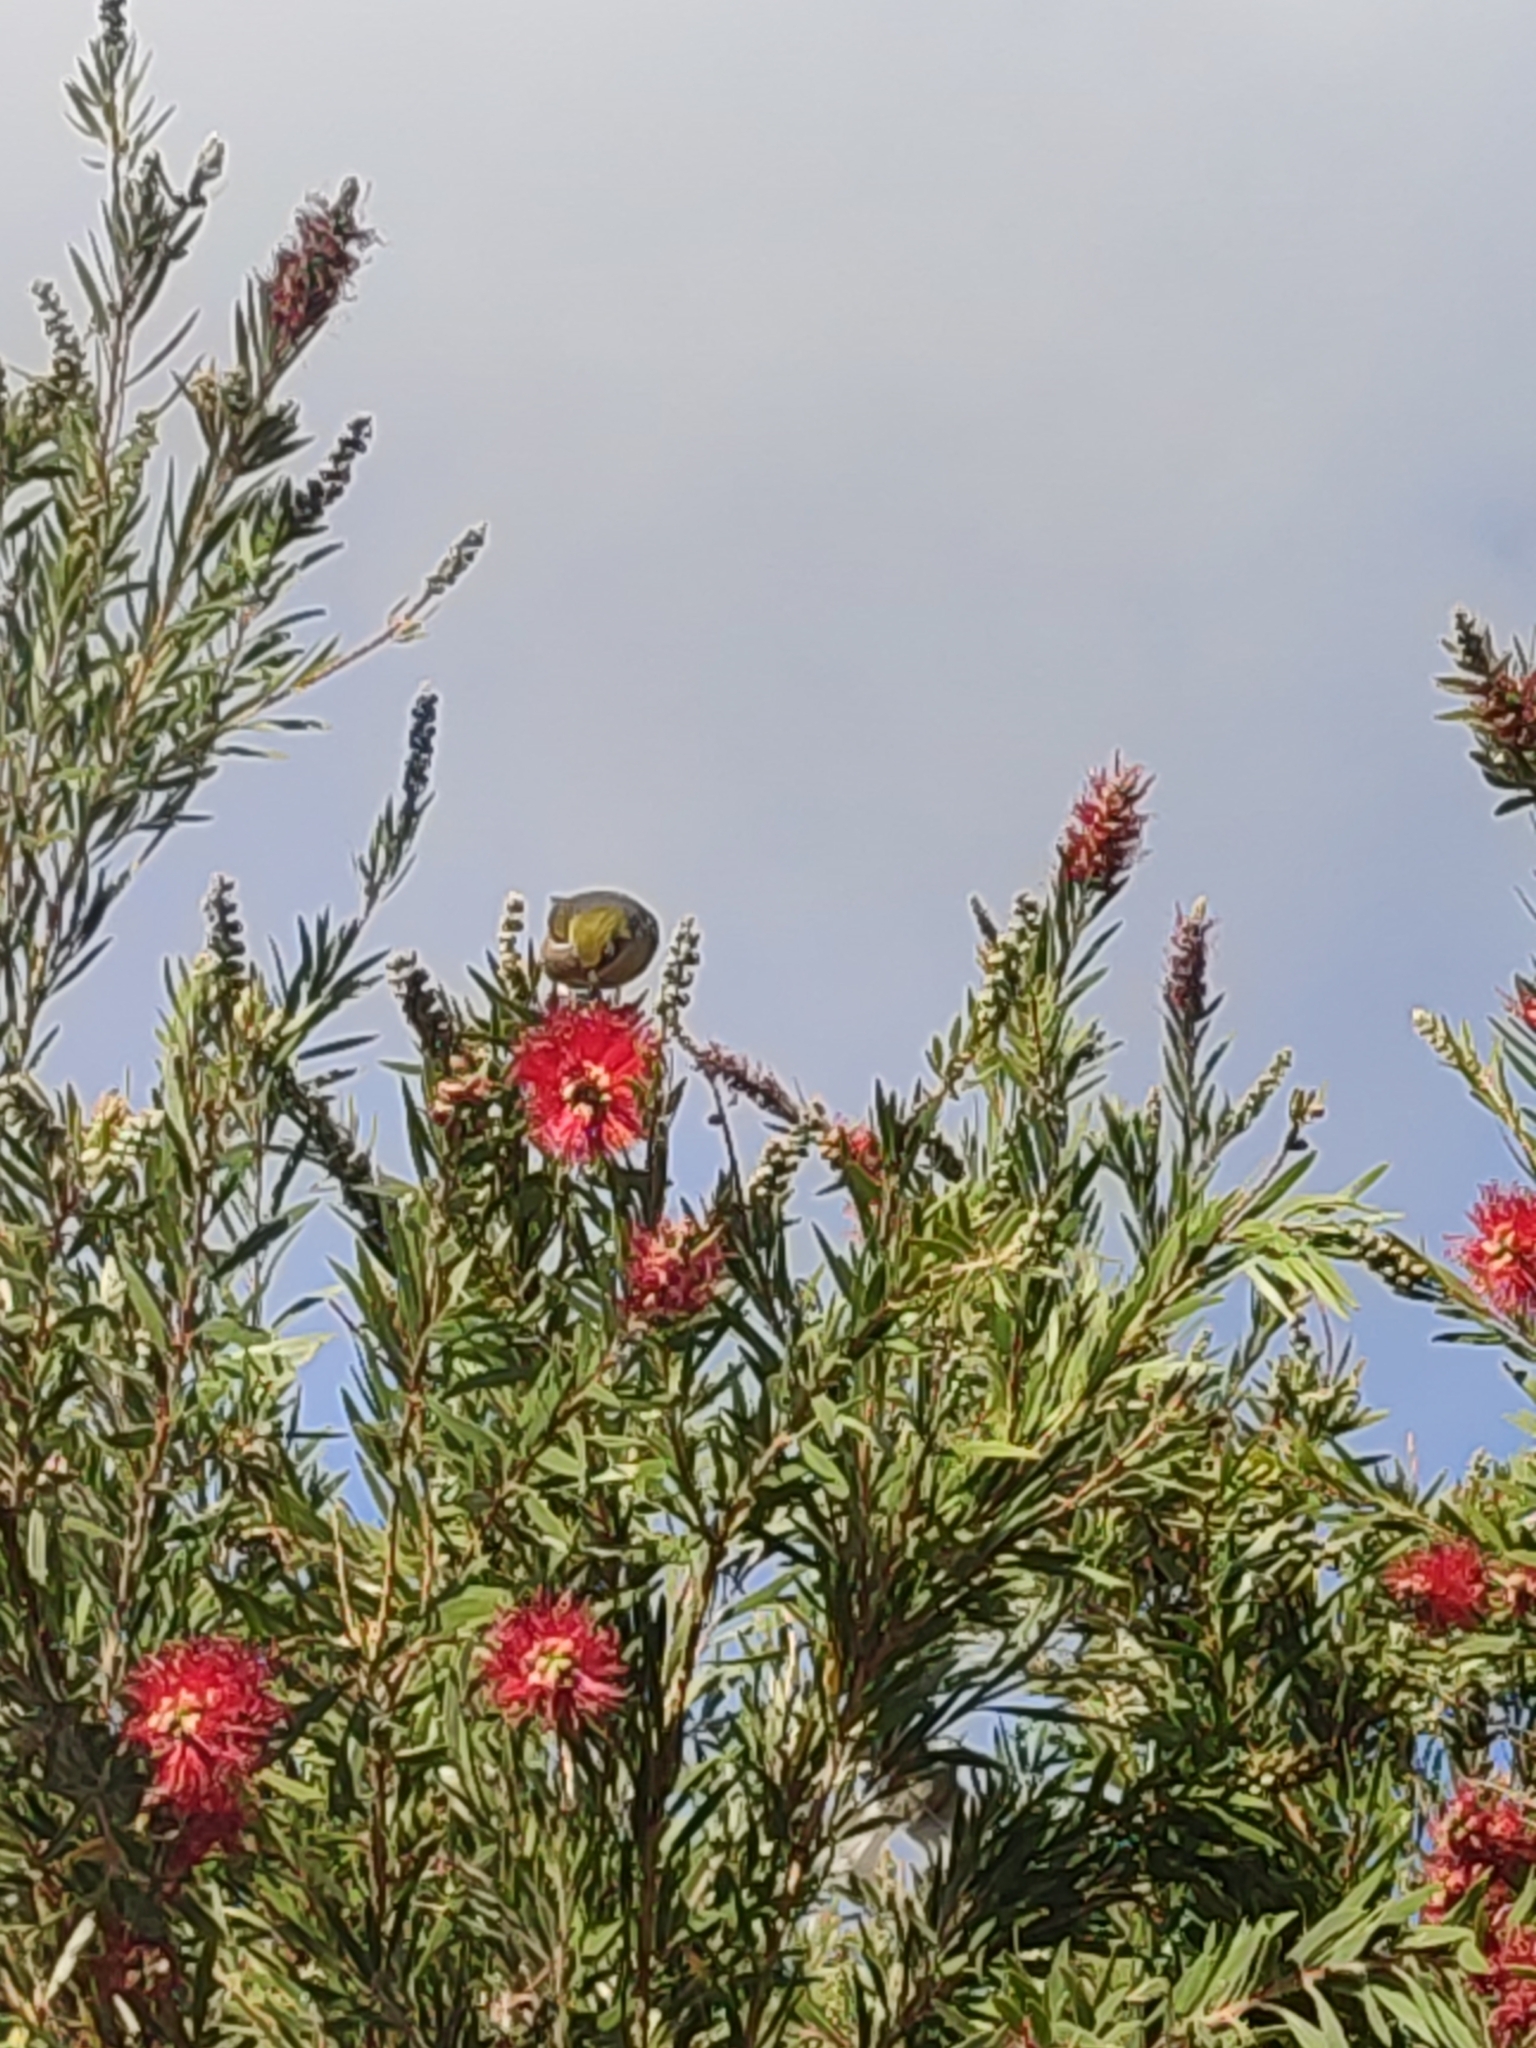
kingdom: Animalia
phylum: Chordata
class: Aves
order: Passeriformes
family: Zosteropidae
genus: Zosterops
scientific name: Zosterops lateralis
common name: Silvereye
